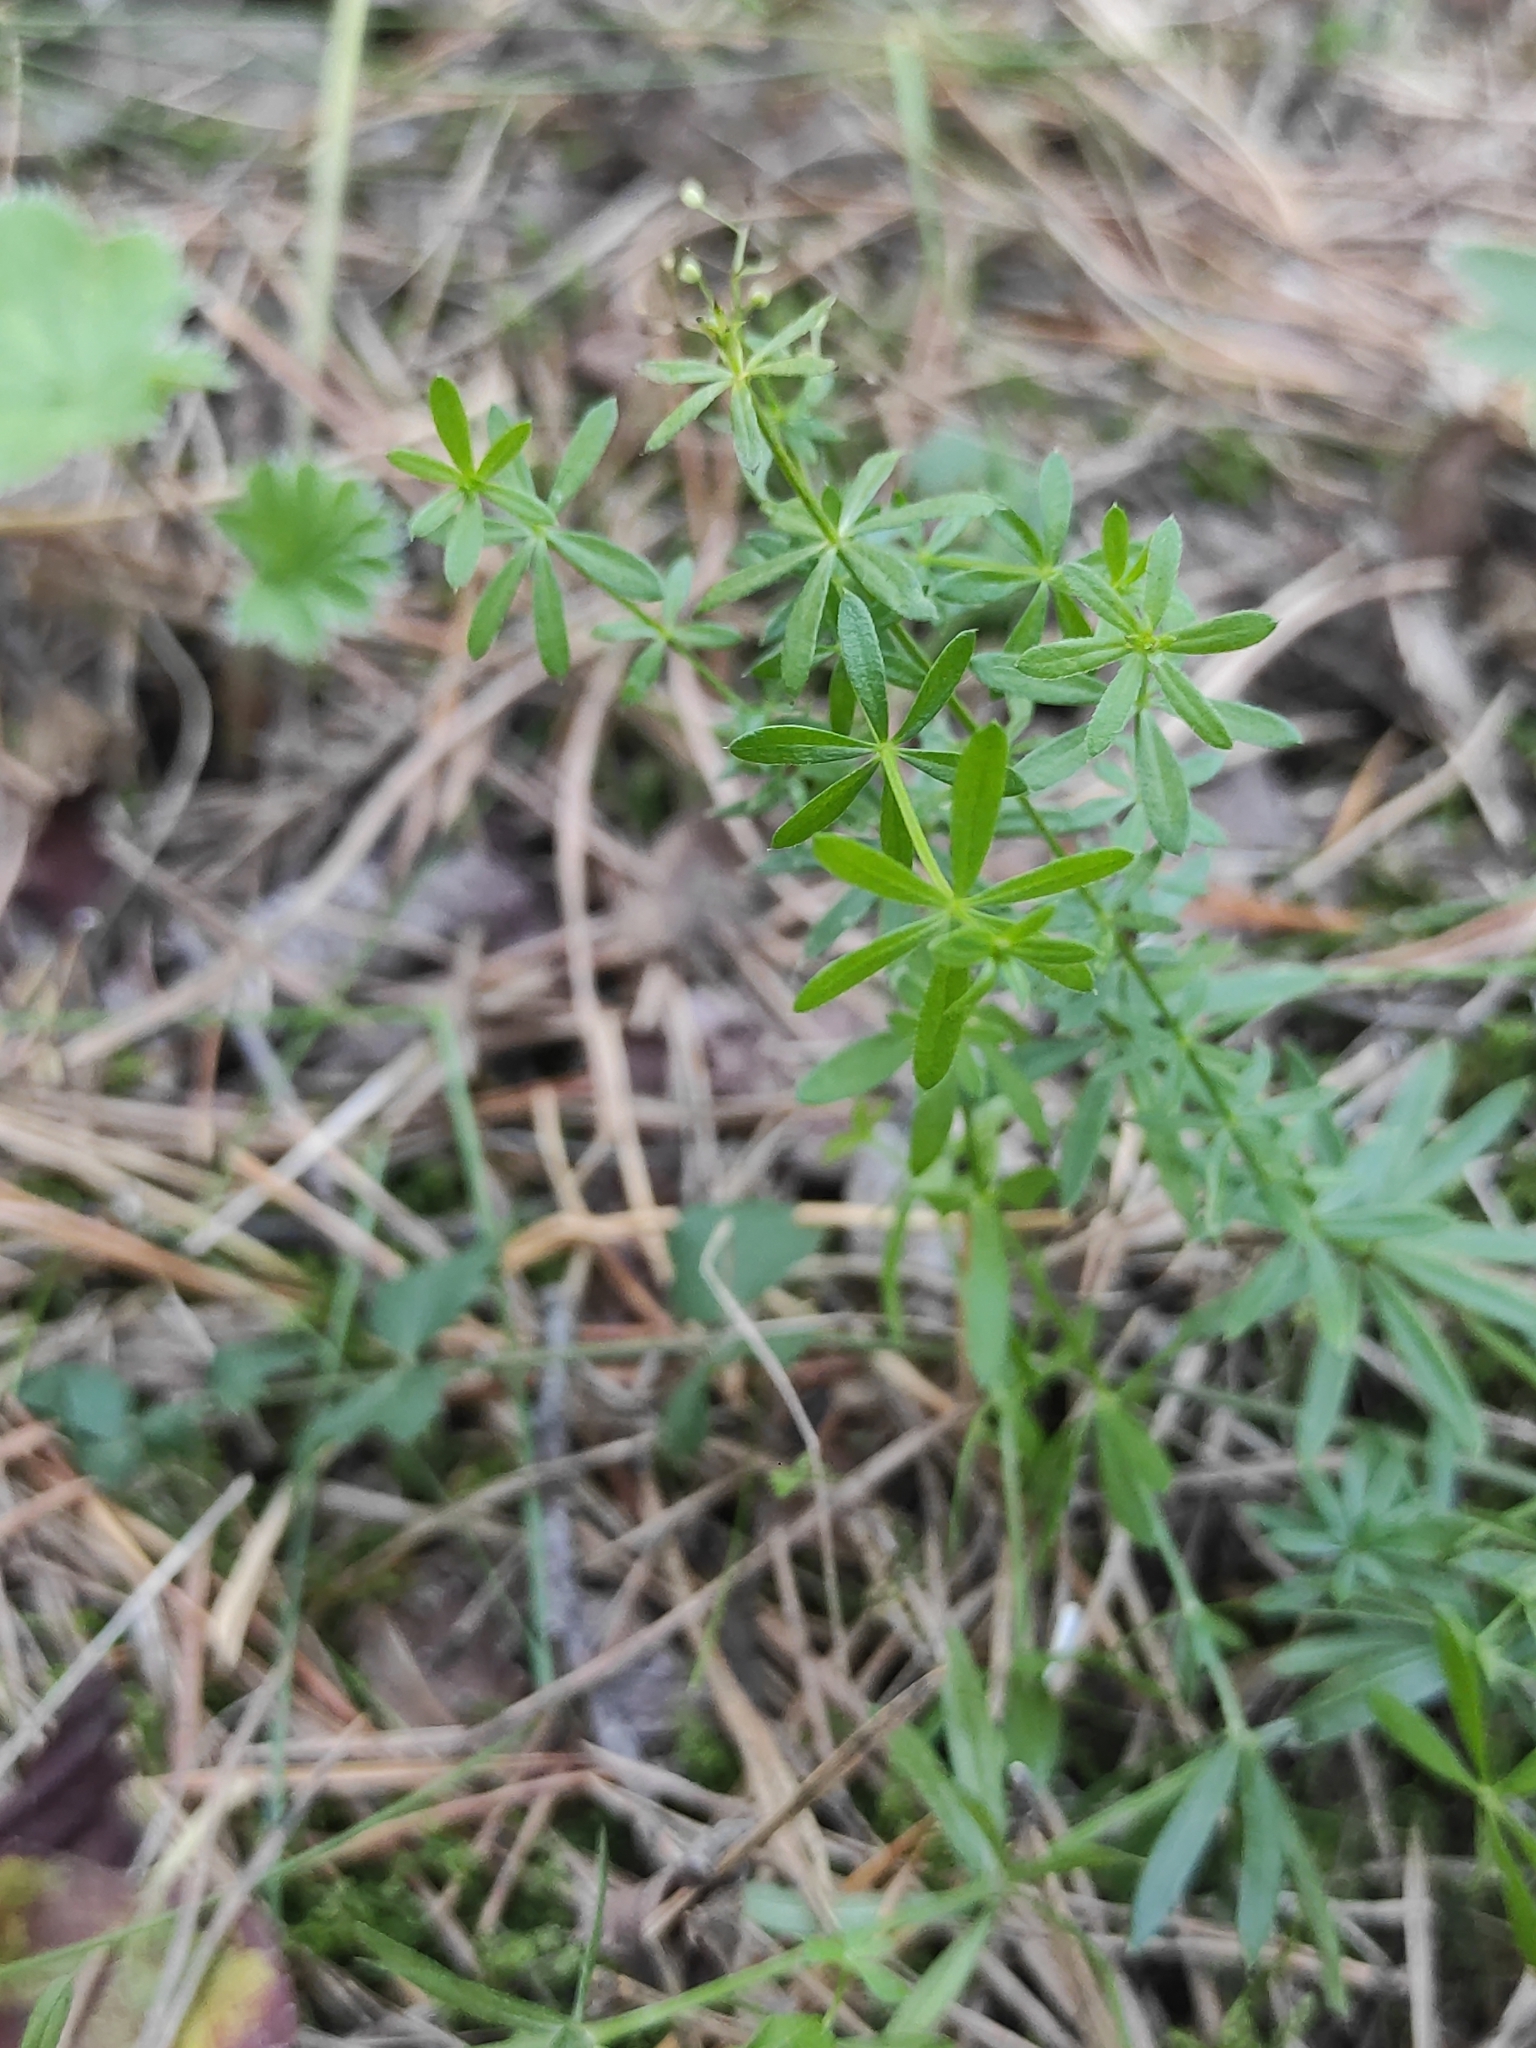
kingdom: Plantae
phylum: Tracheophyta
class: Magnoliopsida
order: Gentianales
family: Rubiaceae
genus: Galium
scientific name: Galium mollugo
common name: Hedge bedstraw
